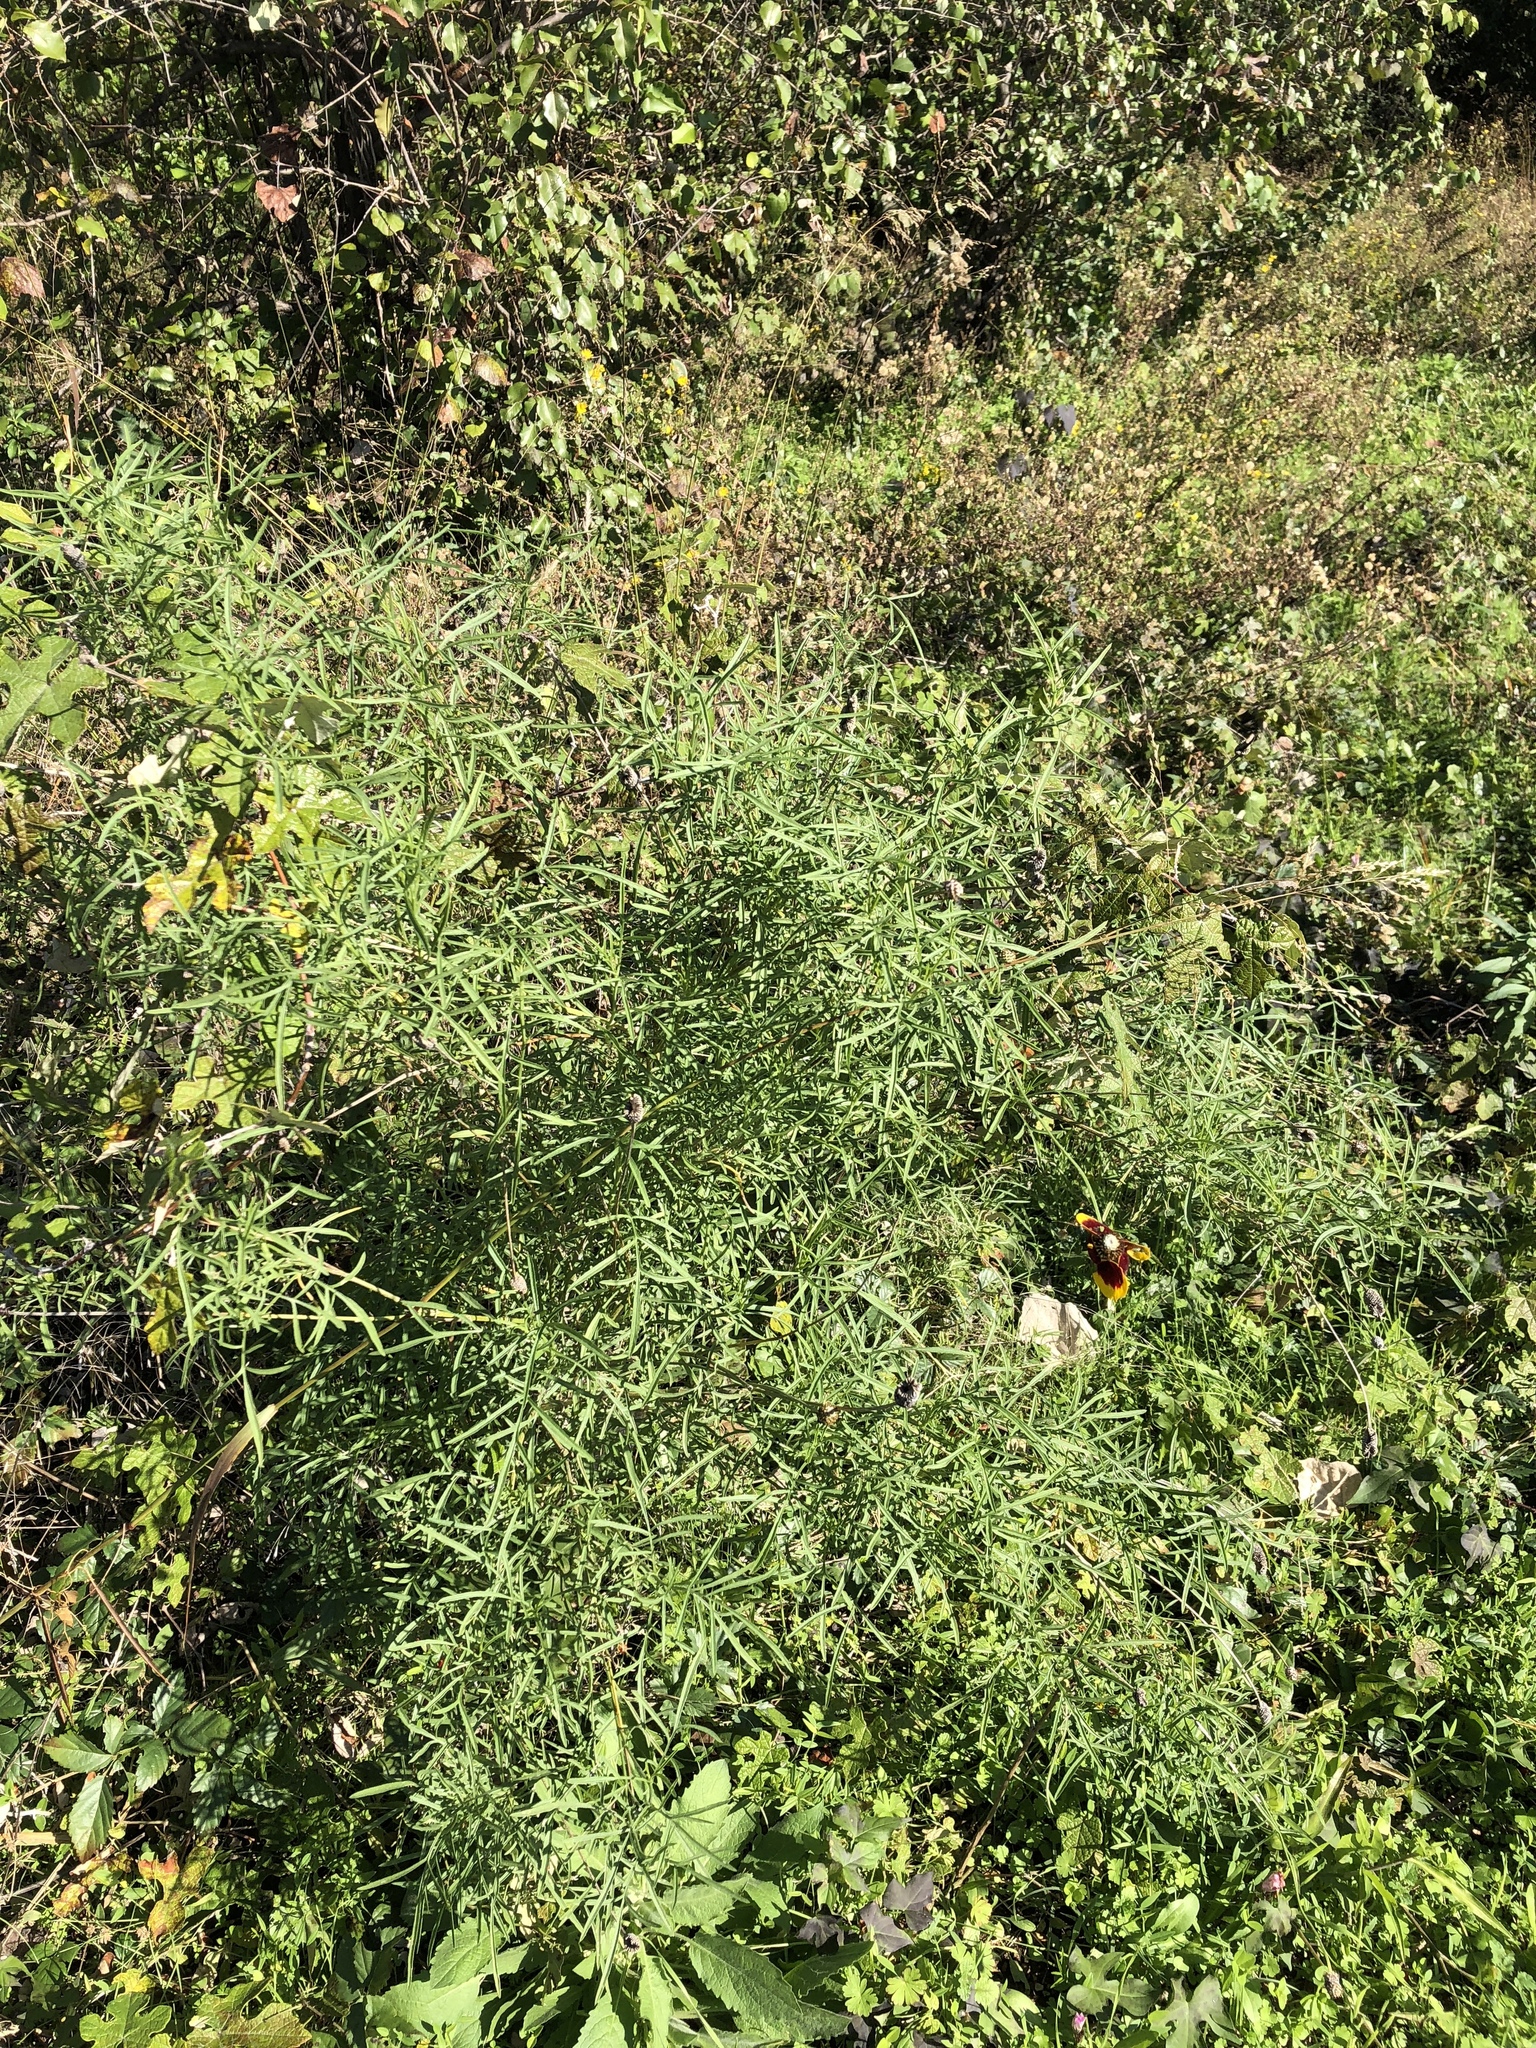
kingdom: Plantae
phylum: Tracheophyta
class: Magnoliopsida
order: Asterales
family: Asteraceae
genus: Ratibida
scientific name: Ratibida columnifera
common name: Prairie coneflower
